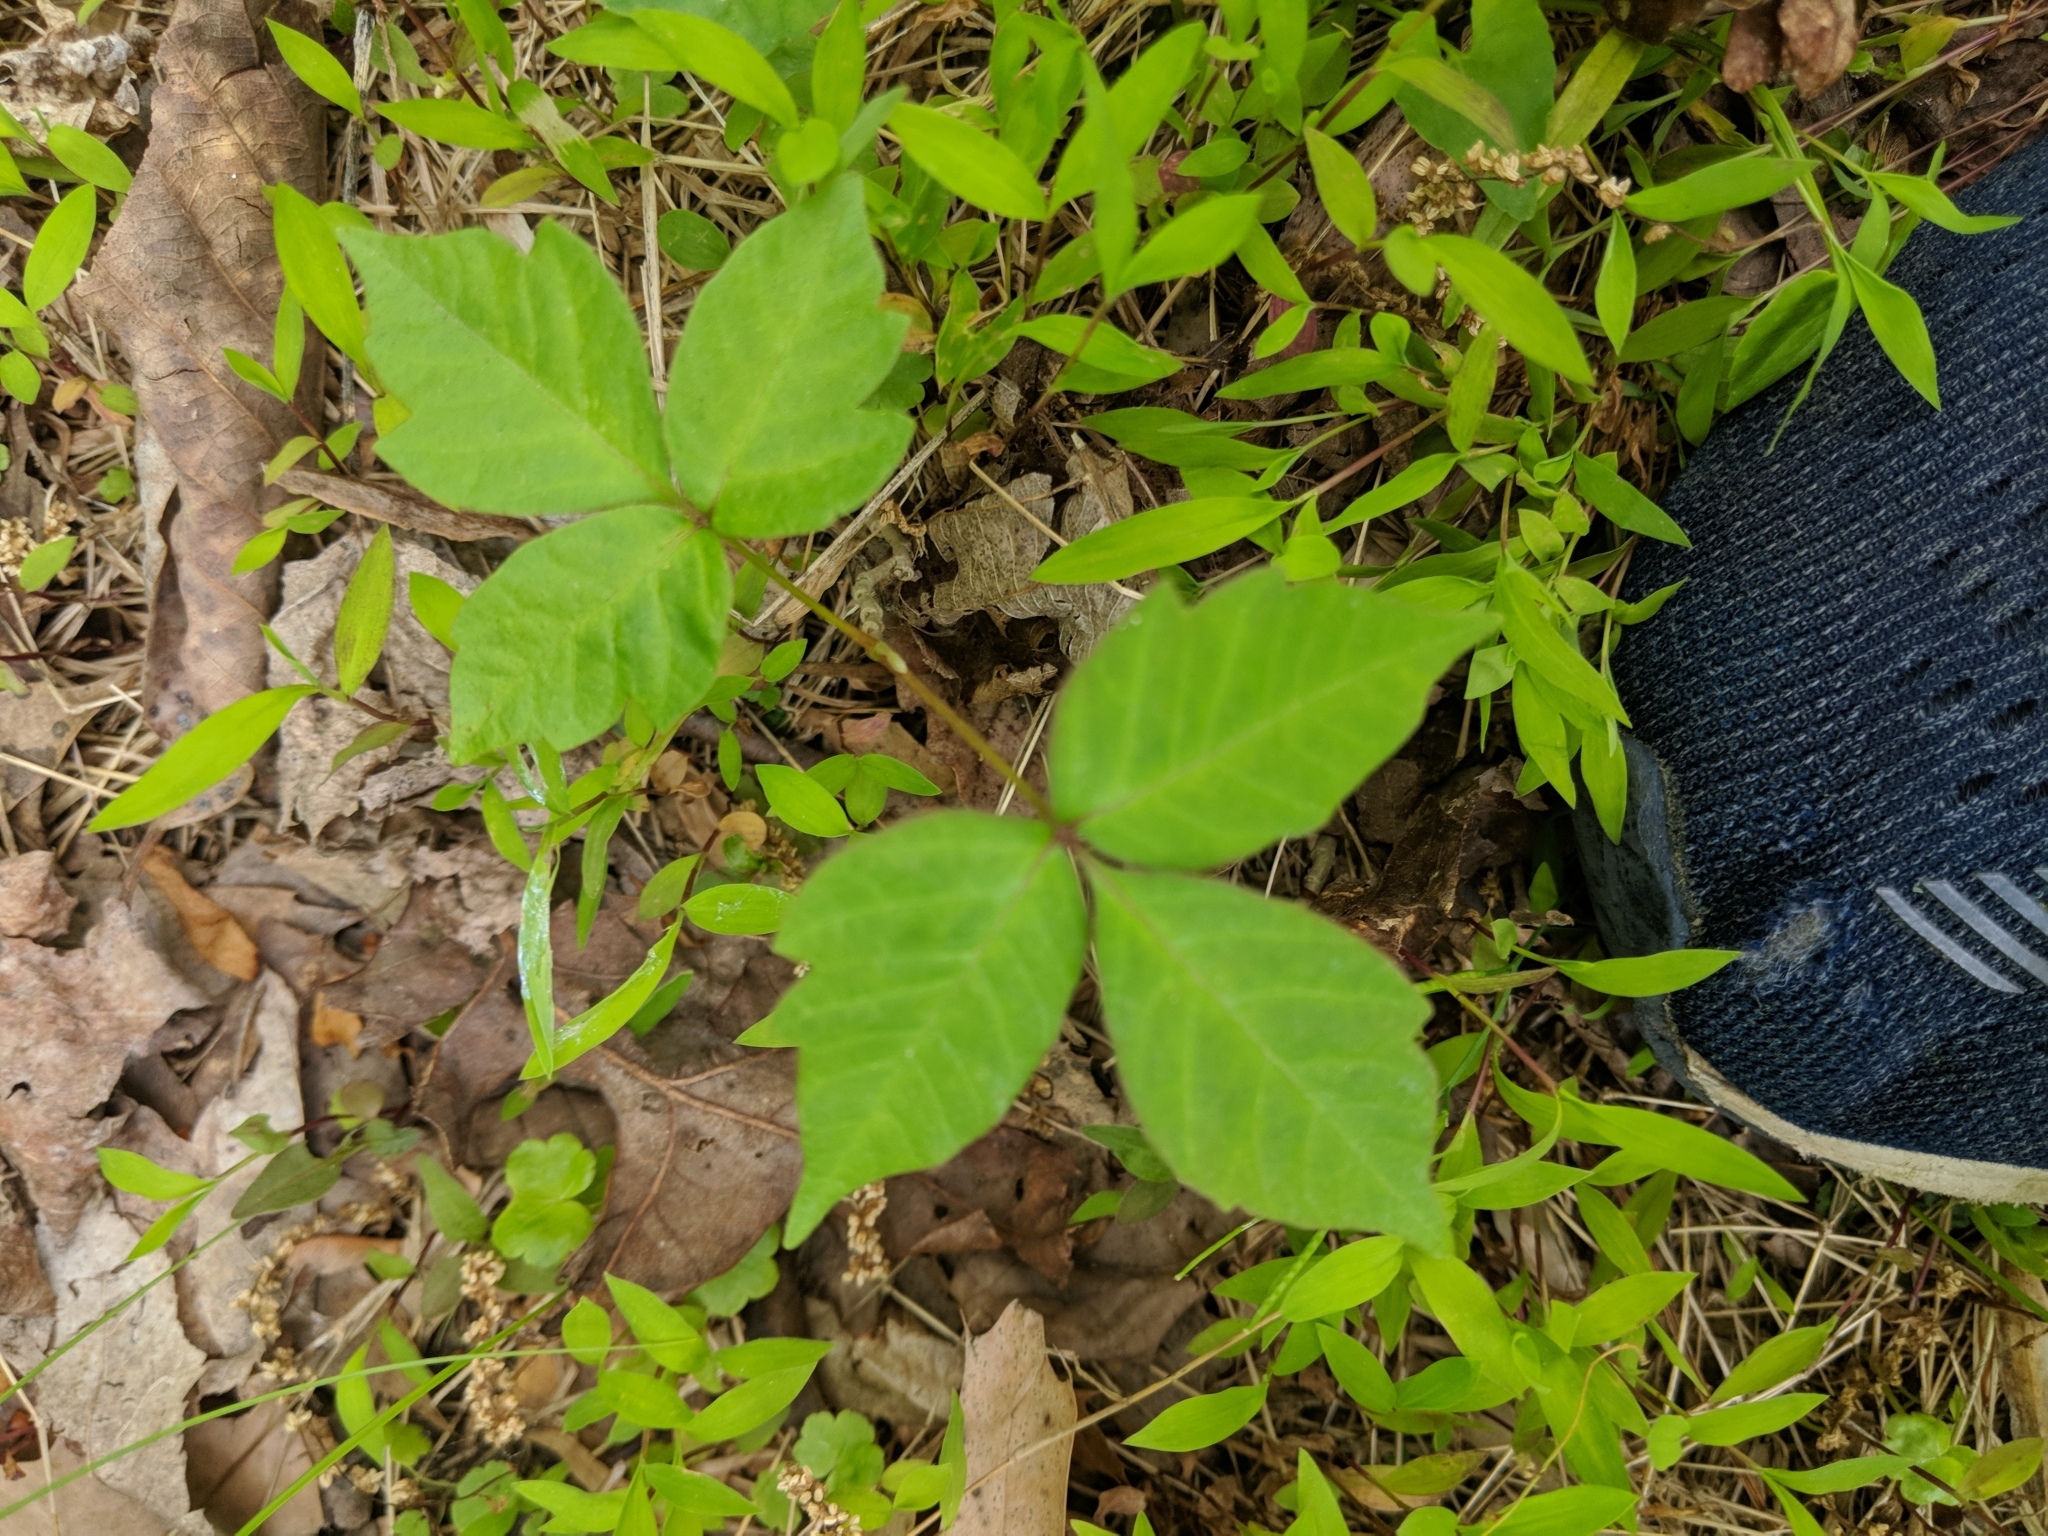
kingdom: Plantae
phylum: Tracheophyta
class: Magnoliopsida
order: Sapindales
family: Anacardiaceae
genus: Toxicodendron
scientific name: Toxicodendron radicans
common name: Poison ivy
